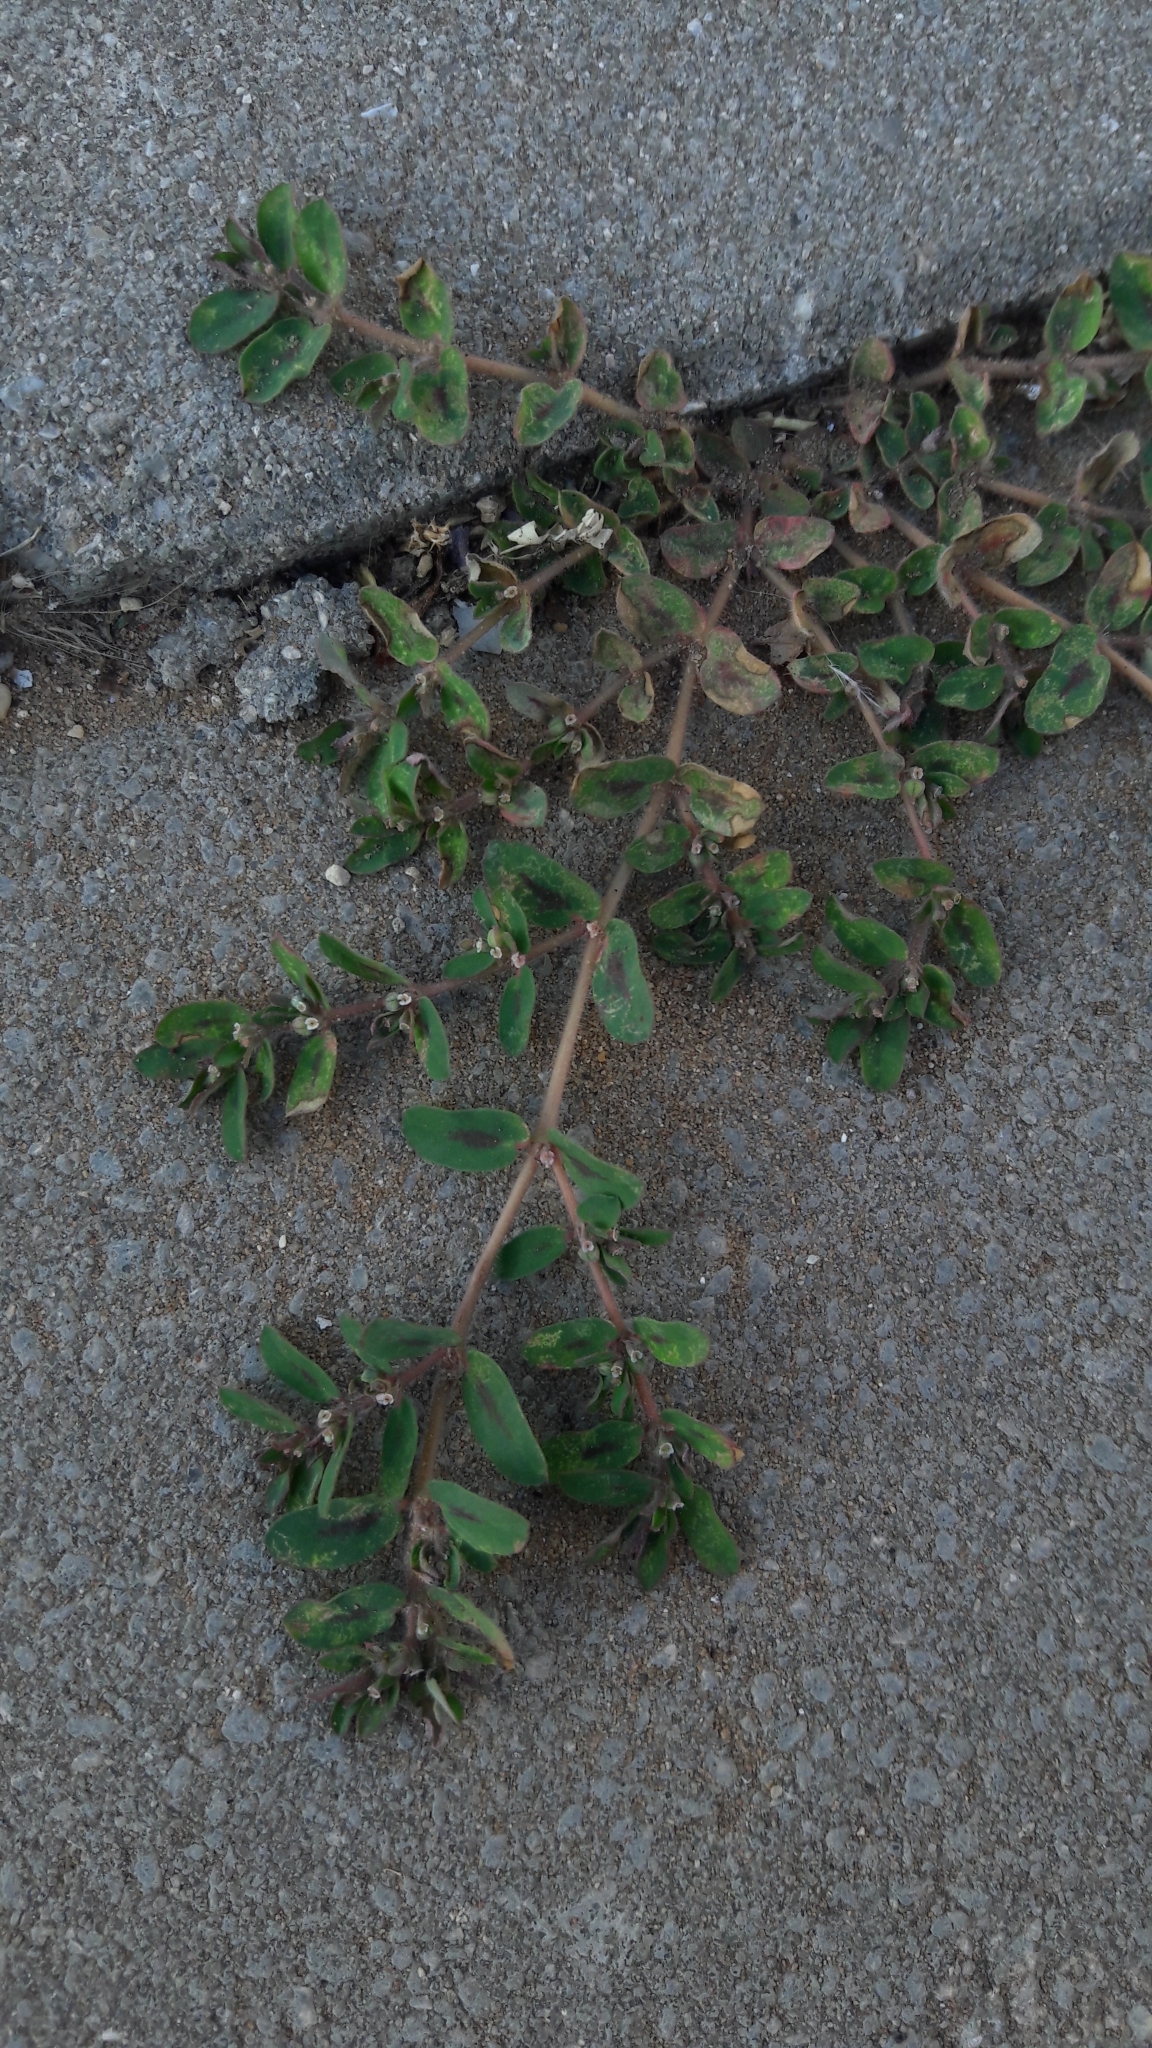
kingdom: Plantae
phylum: Tracheophyta
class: Magnoliopsida
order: Malpighiales
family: Euphorbiaceae
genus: Euphorbia
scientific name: Euphorbia maculata
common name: Spotted spurge
